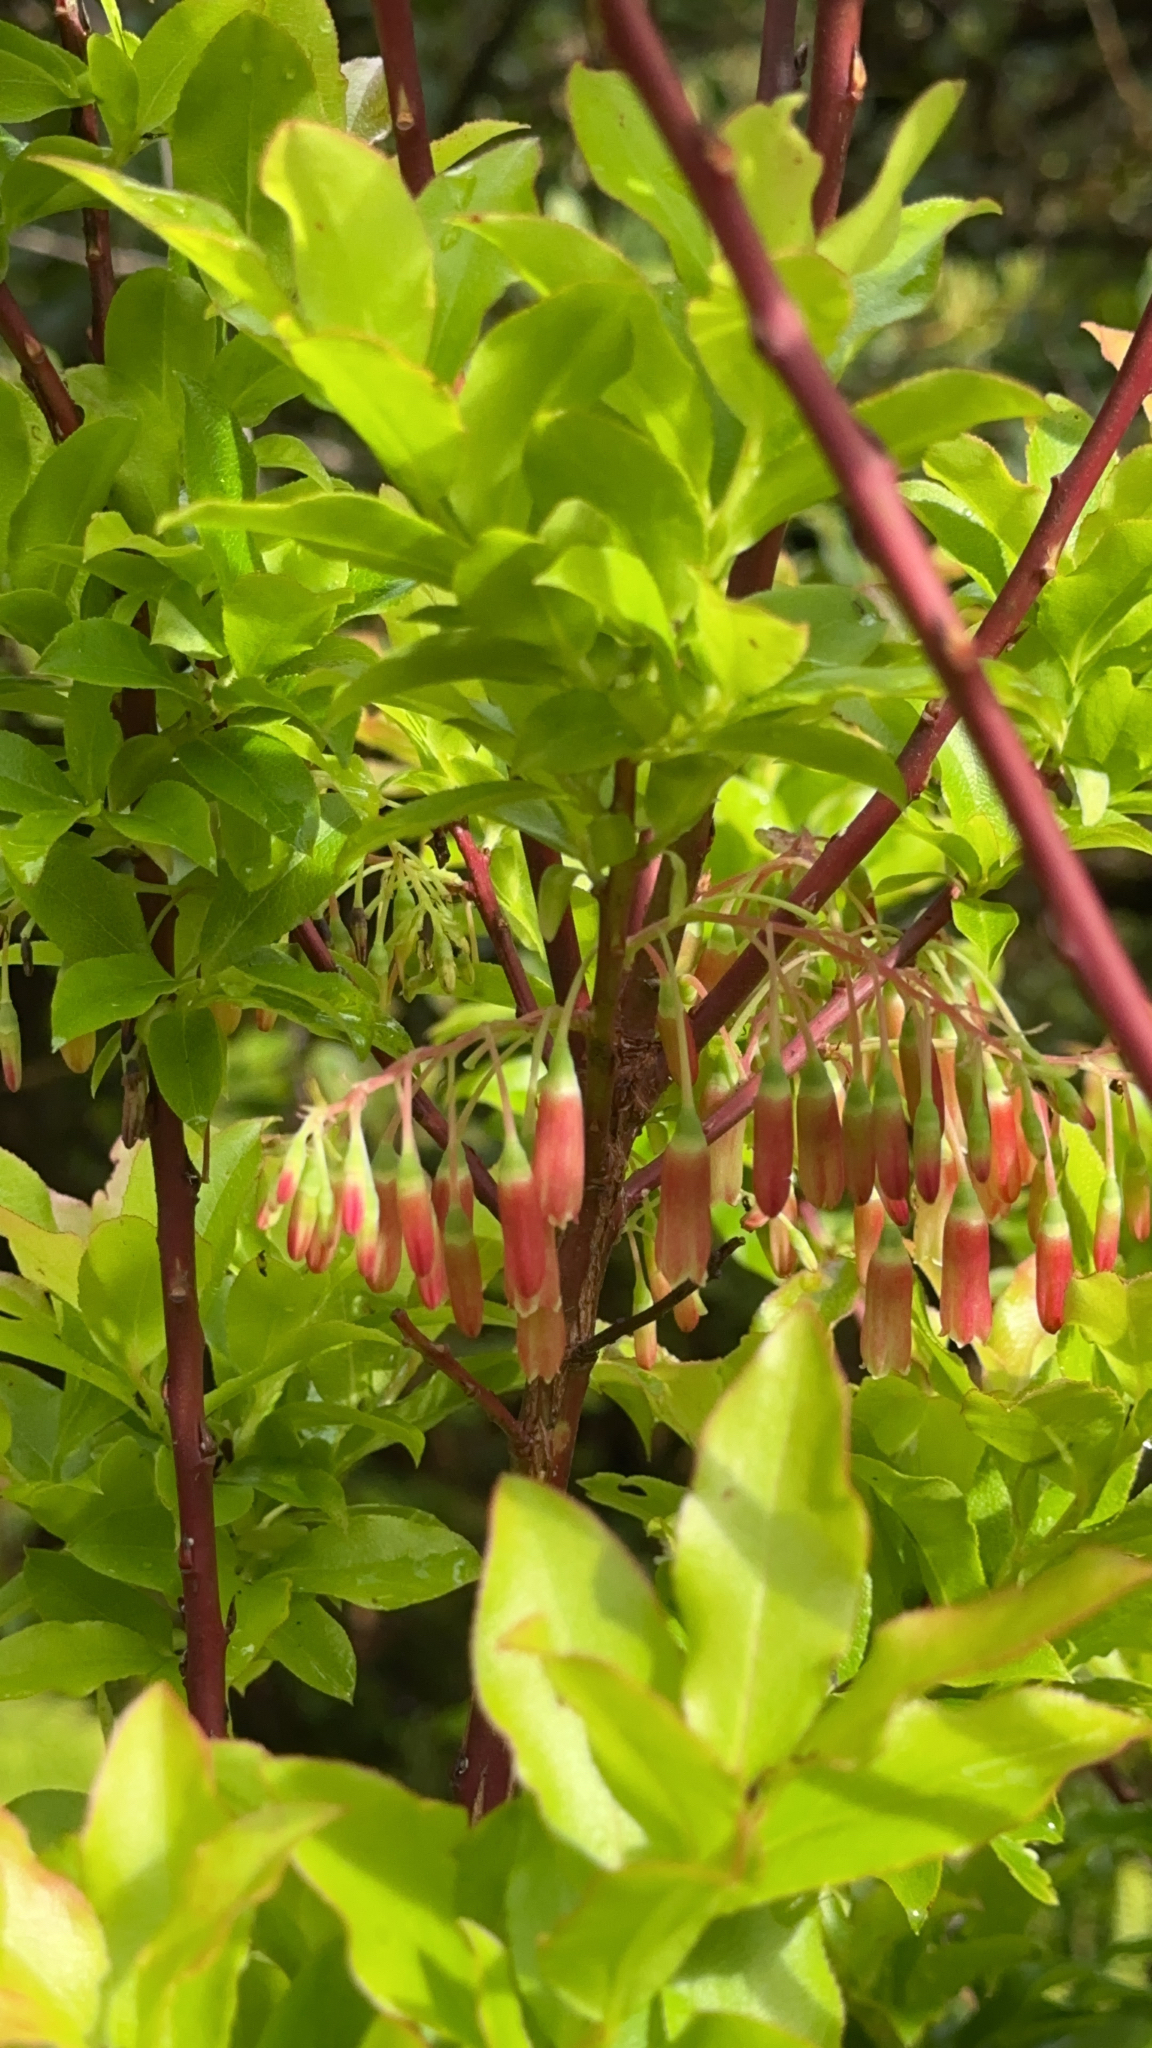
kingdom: Plantae
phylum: Tracheophyta
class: Magnoliopsida
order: Ericales
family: Ericaceae
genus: Vaccinium
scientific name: Vaccinium cylindraceum
